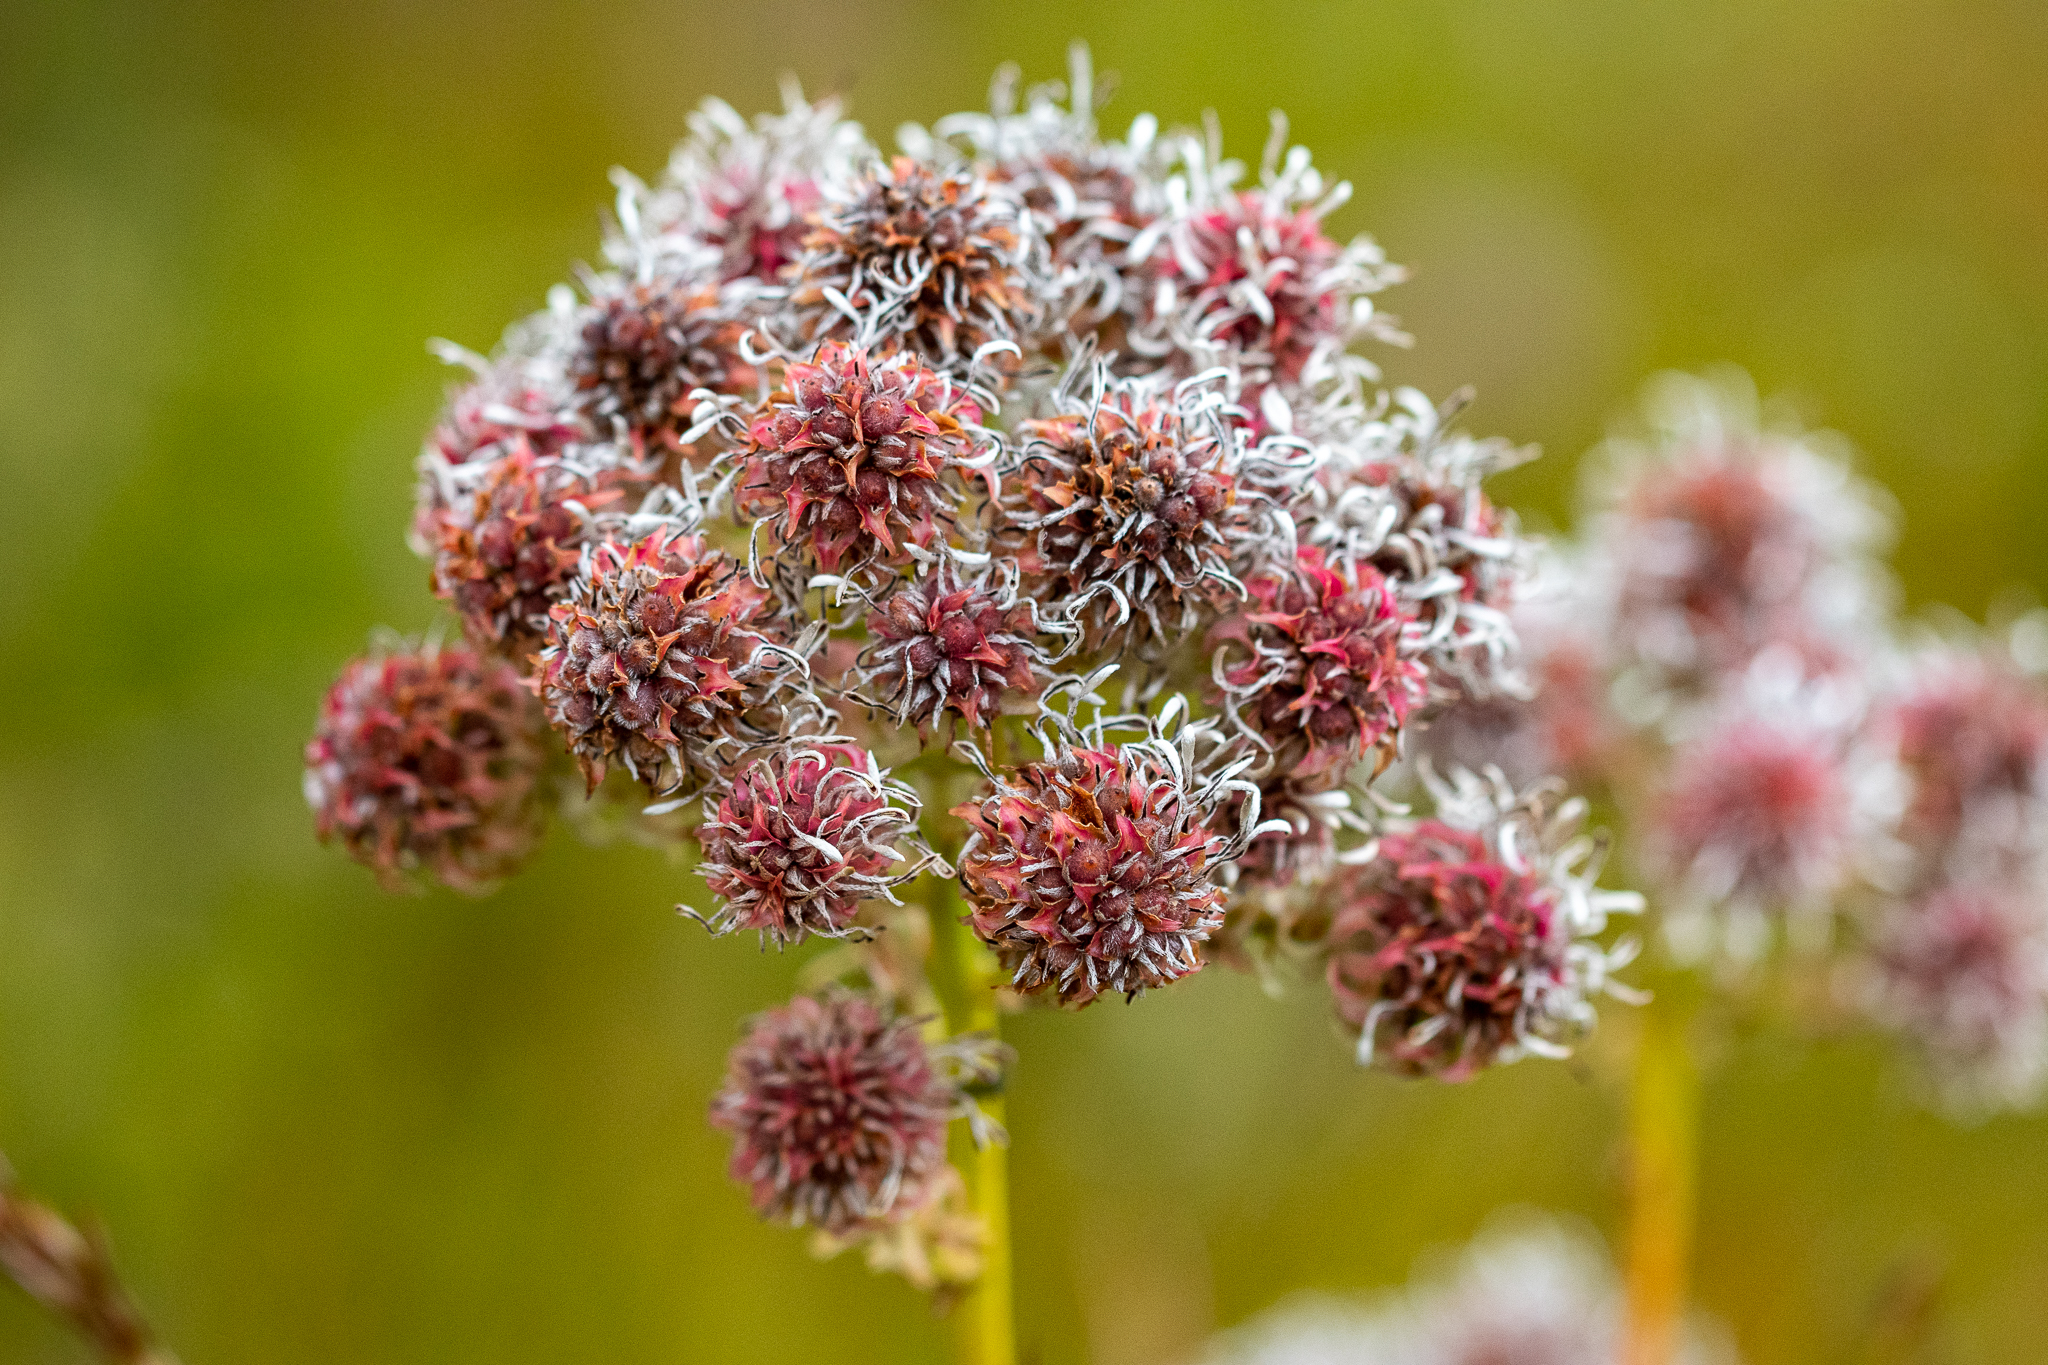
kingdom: Plantae
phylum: Tracheophyta
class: Magnoliopsida
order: Proteales
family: Proteaceae
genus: Serruria
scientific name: Serruria elongata
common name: Long-stalk spiderhead
